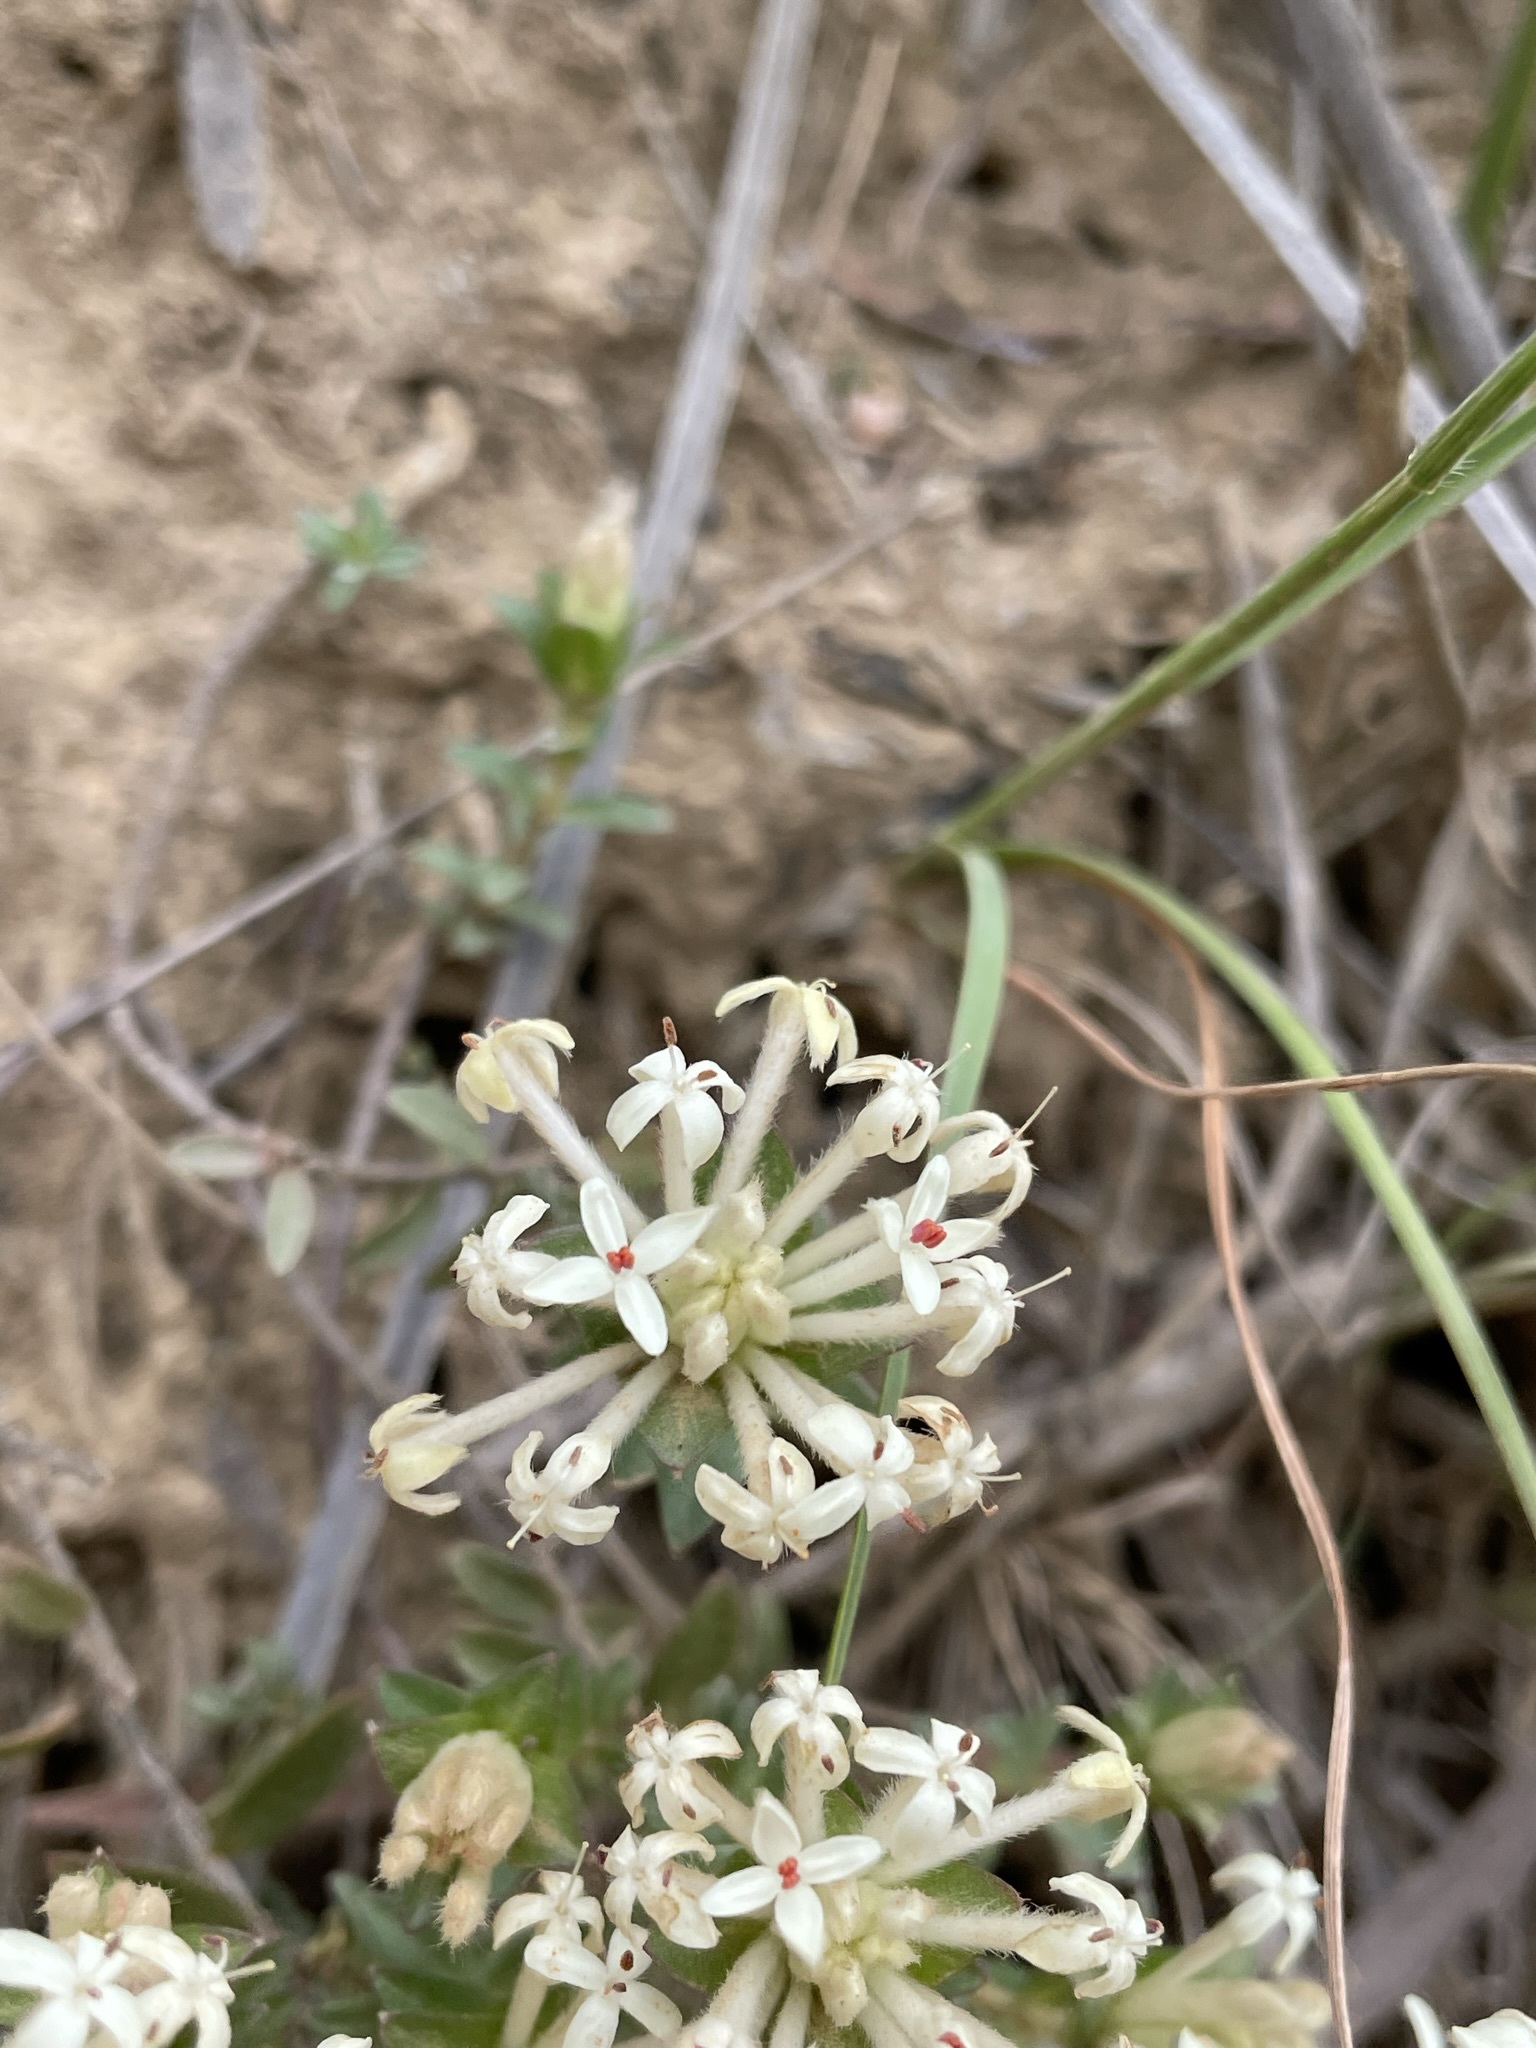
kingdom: Plantae
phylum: Tracheophyta
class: Magnoliopsida
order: Malvales
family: Thymelaeaceae
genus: Pimelea
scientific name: Pimelea humilis
